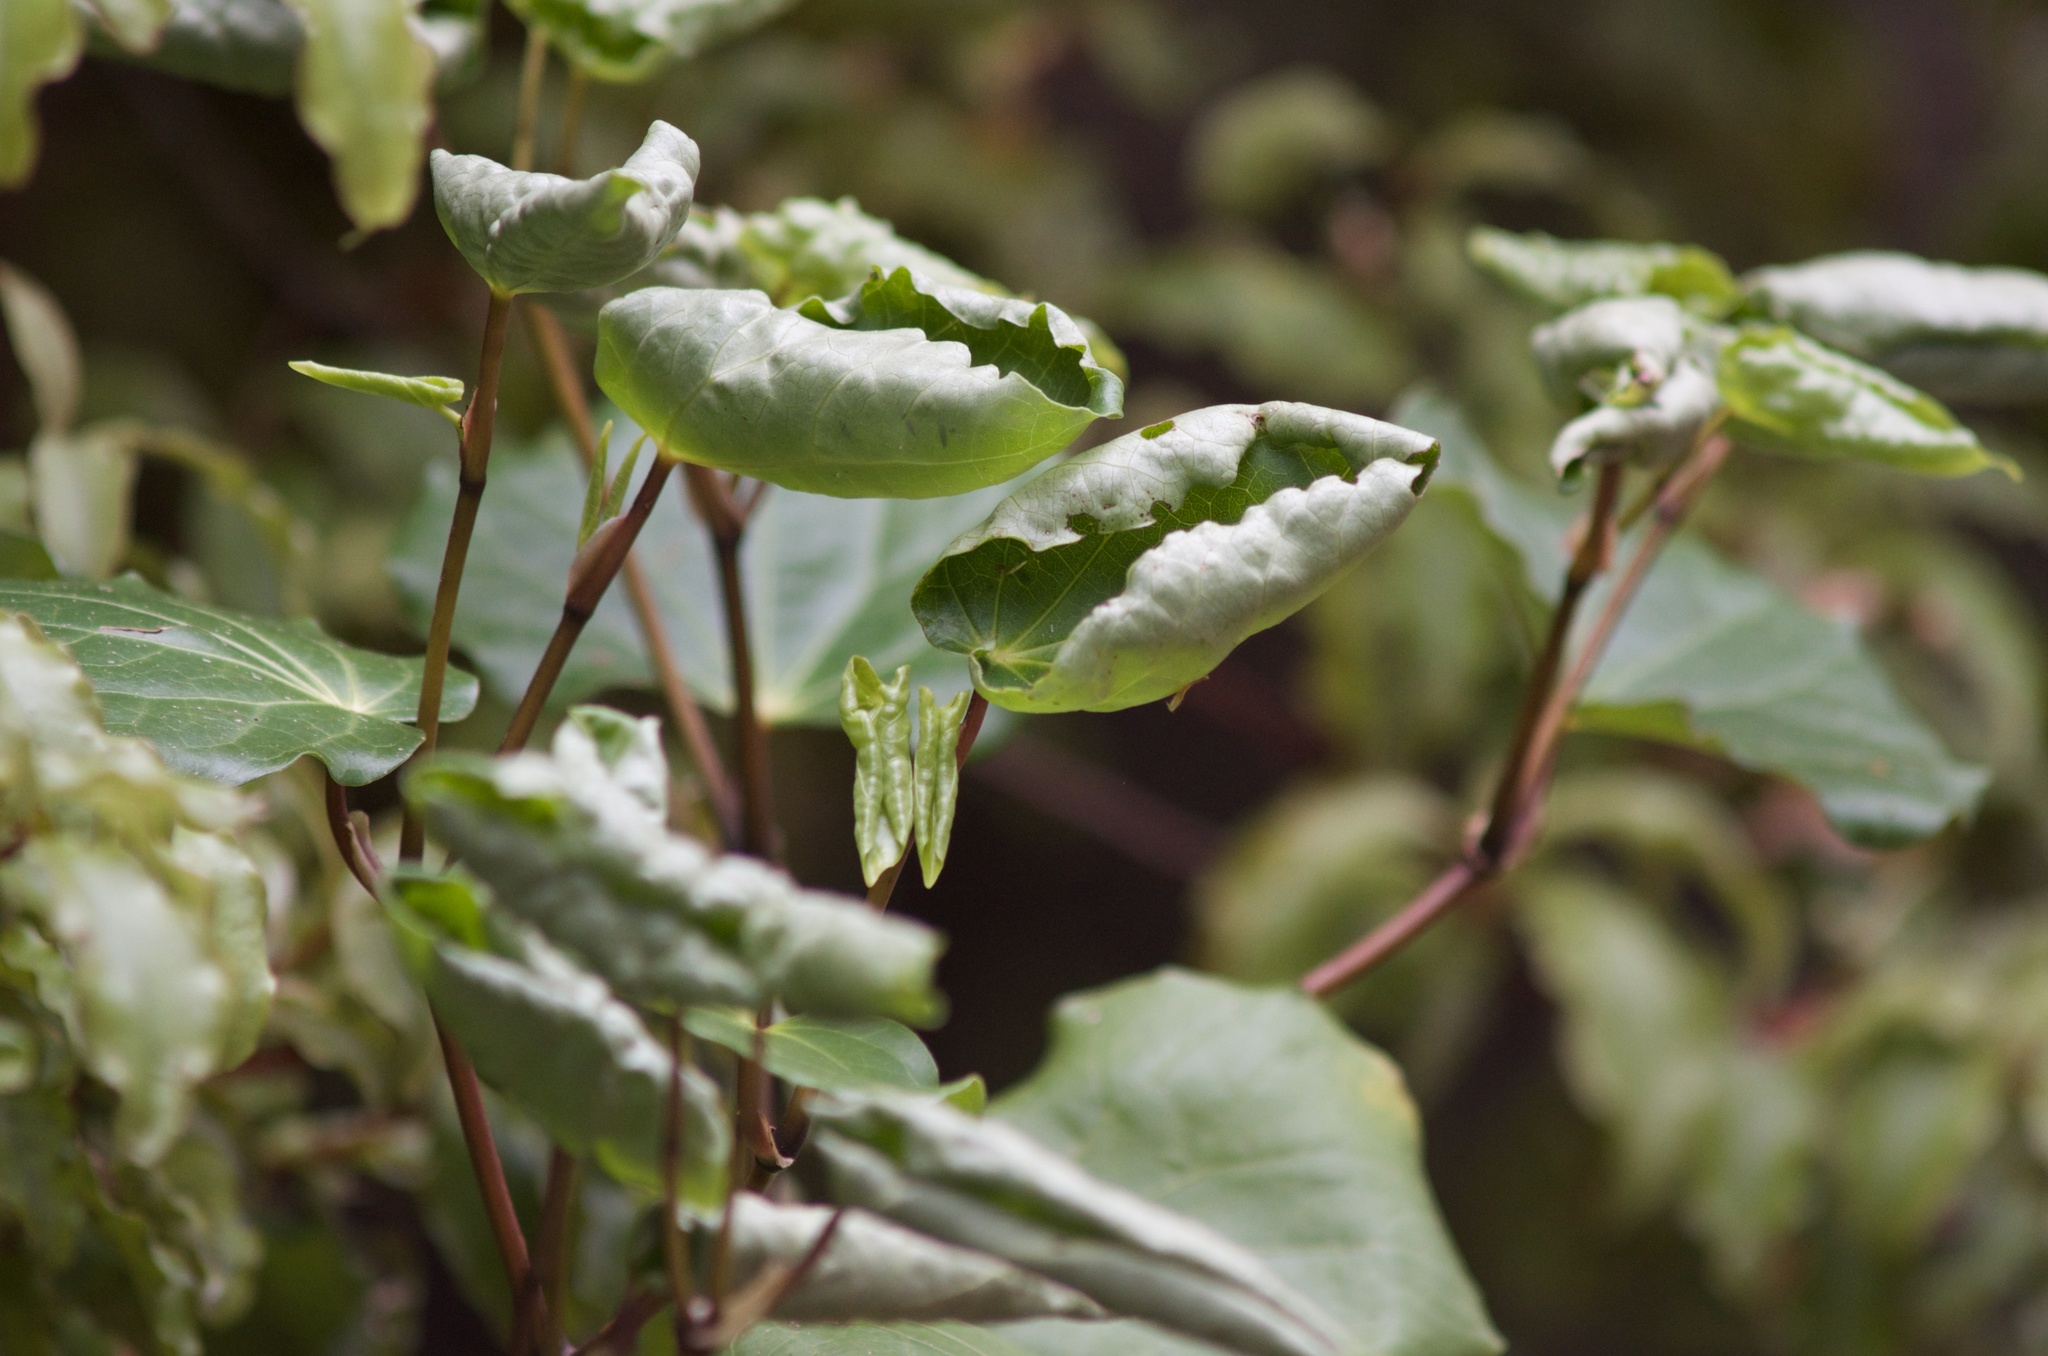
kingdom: Plantae
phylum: Tracheophyta
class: Magnoliopsida
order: Piperales
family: Piperaceae
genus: Macropiper
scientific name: Macropiper excelsum
